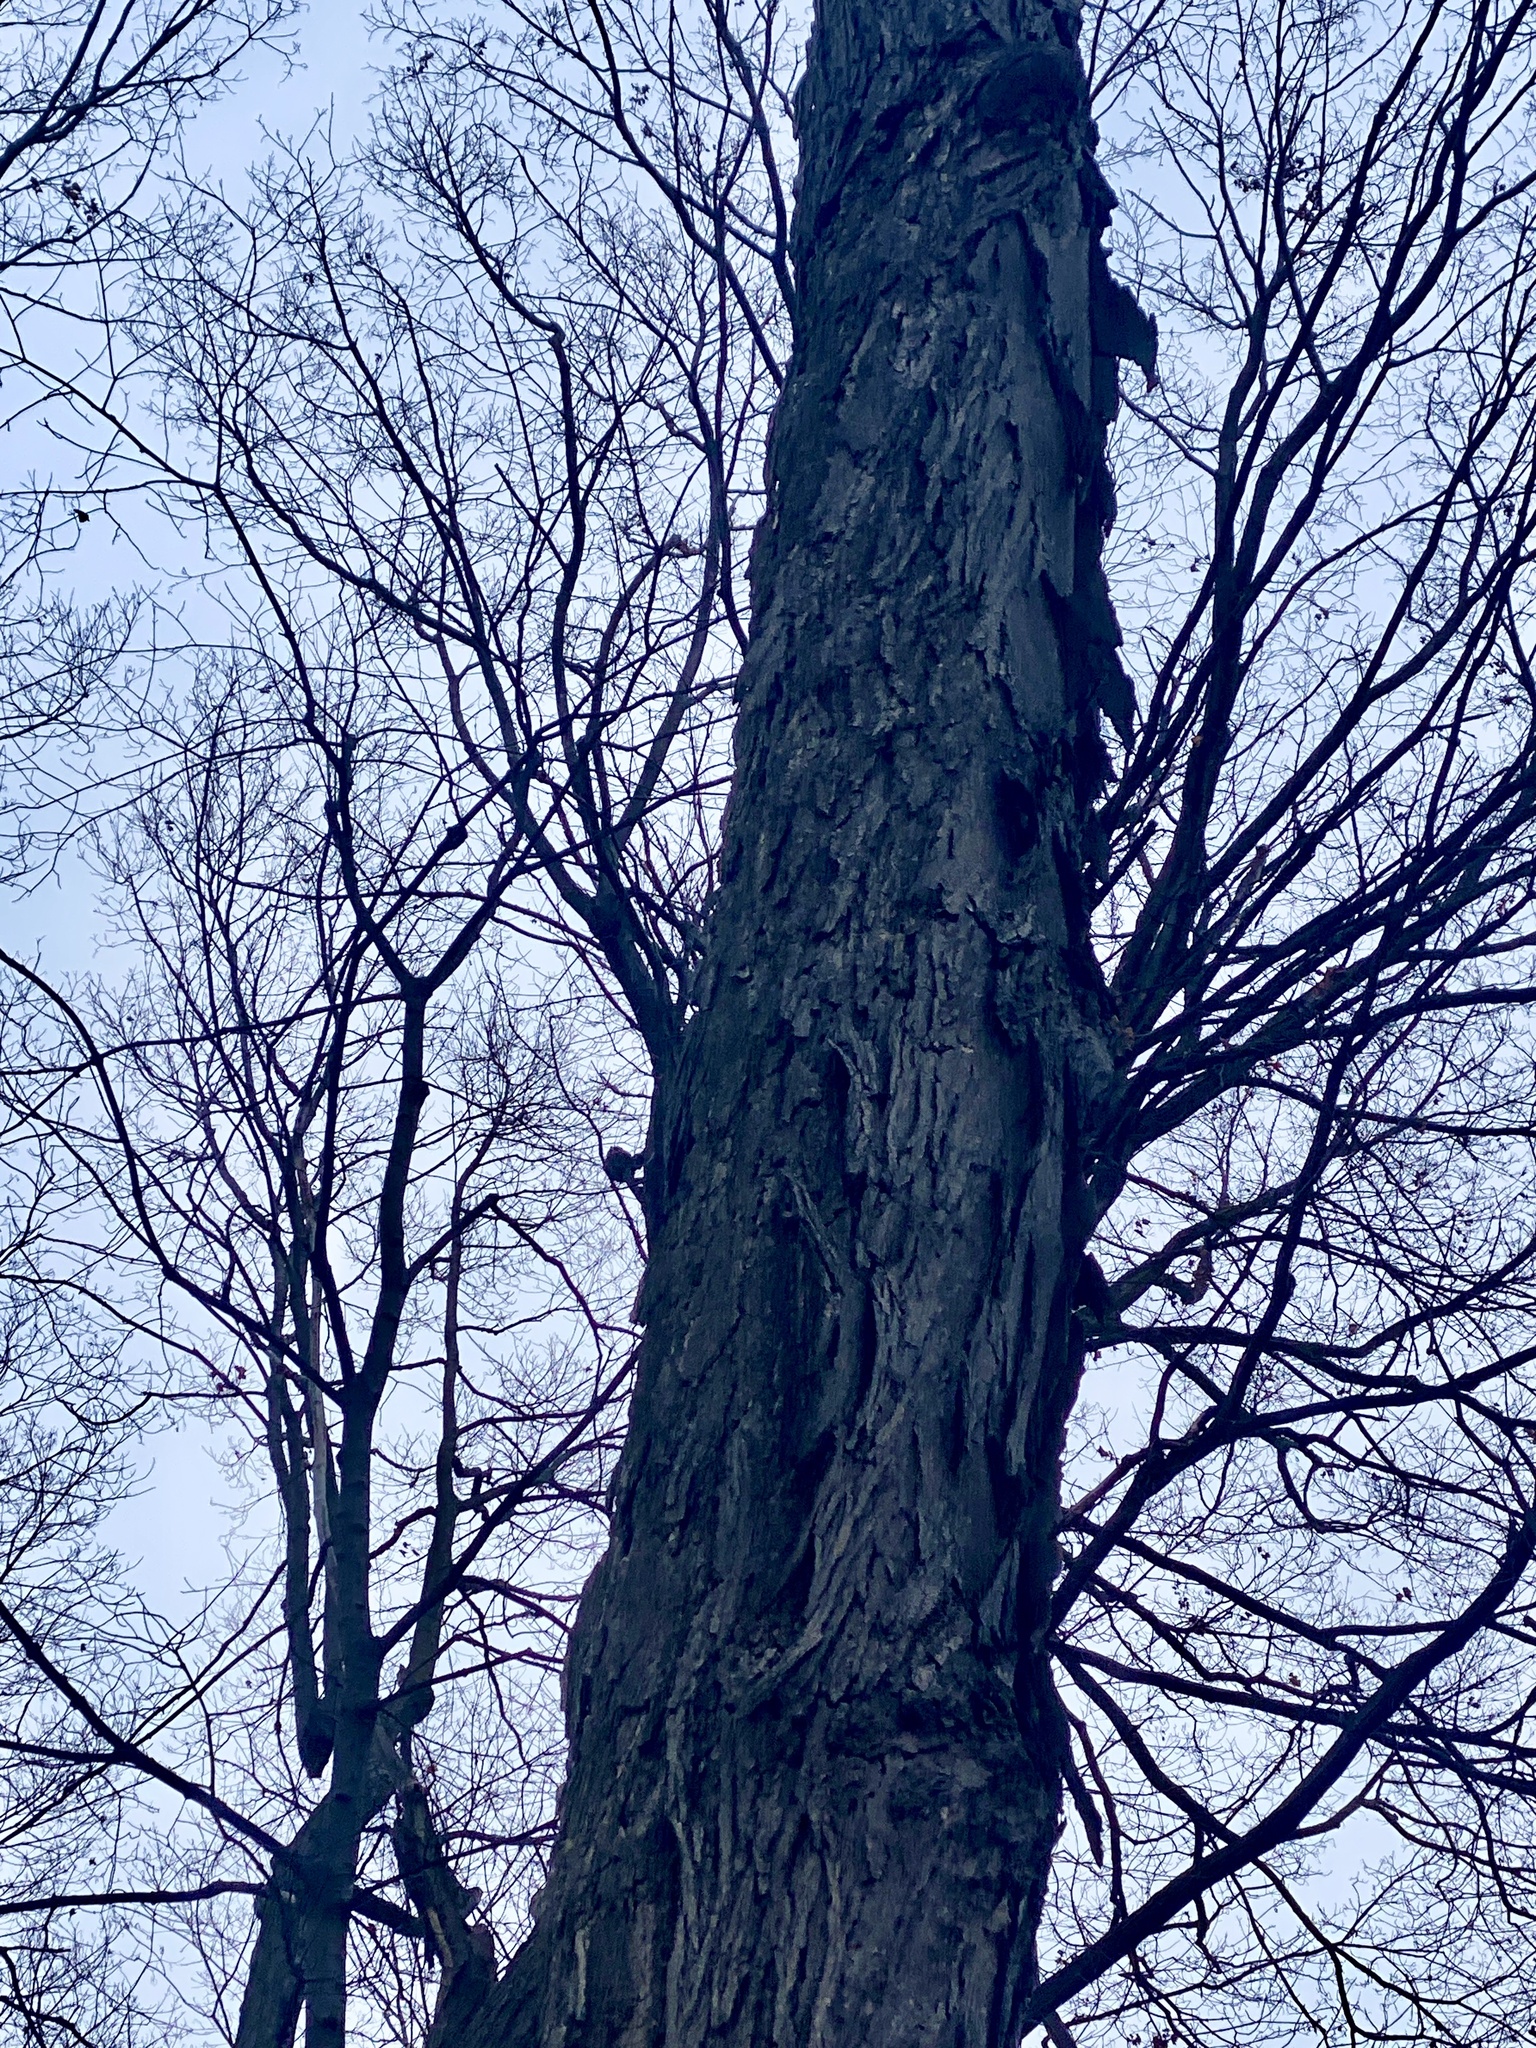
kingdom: Plantae
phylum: Tracheophyta
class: Magnoliopsida
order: Fagales
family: Juglandaceae
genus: Carya
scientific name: Carya ovata
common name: Shagbark hickory
